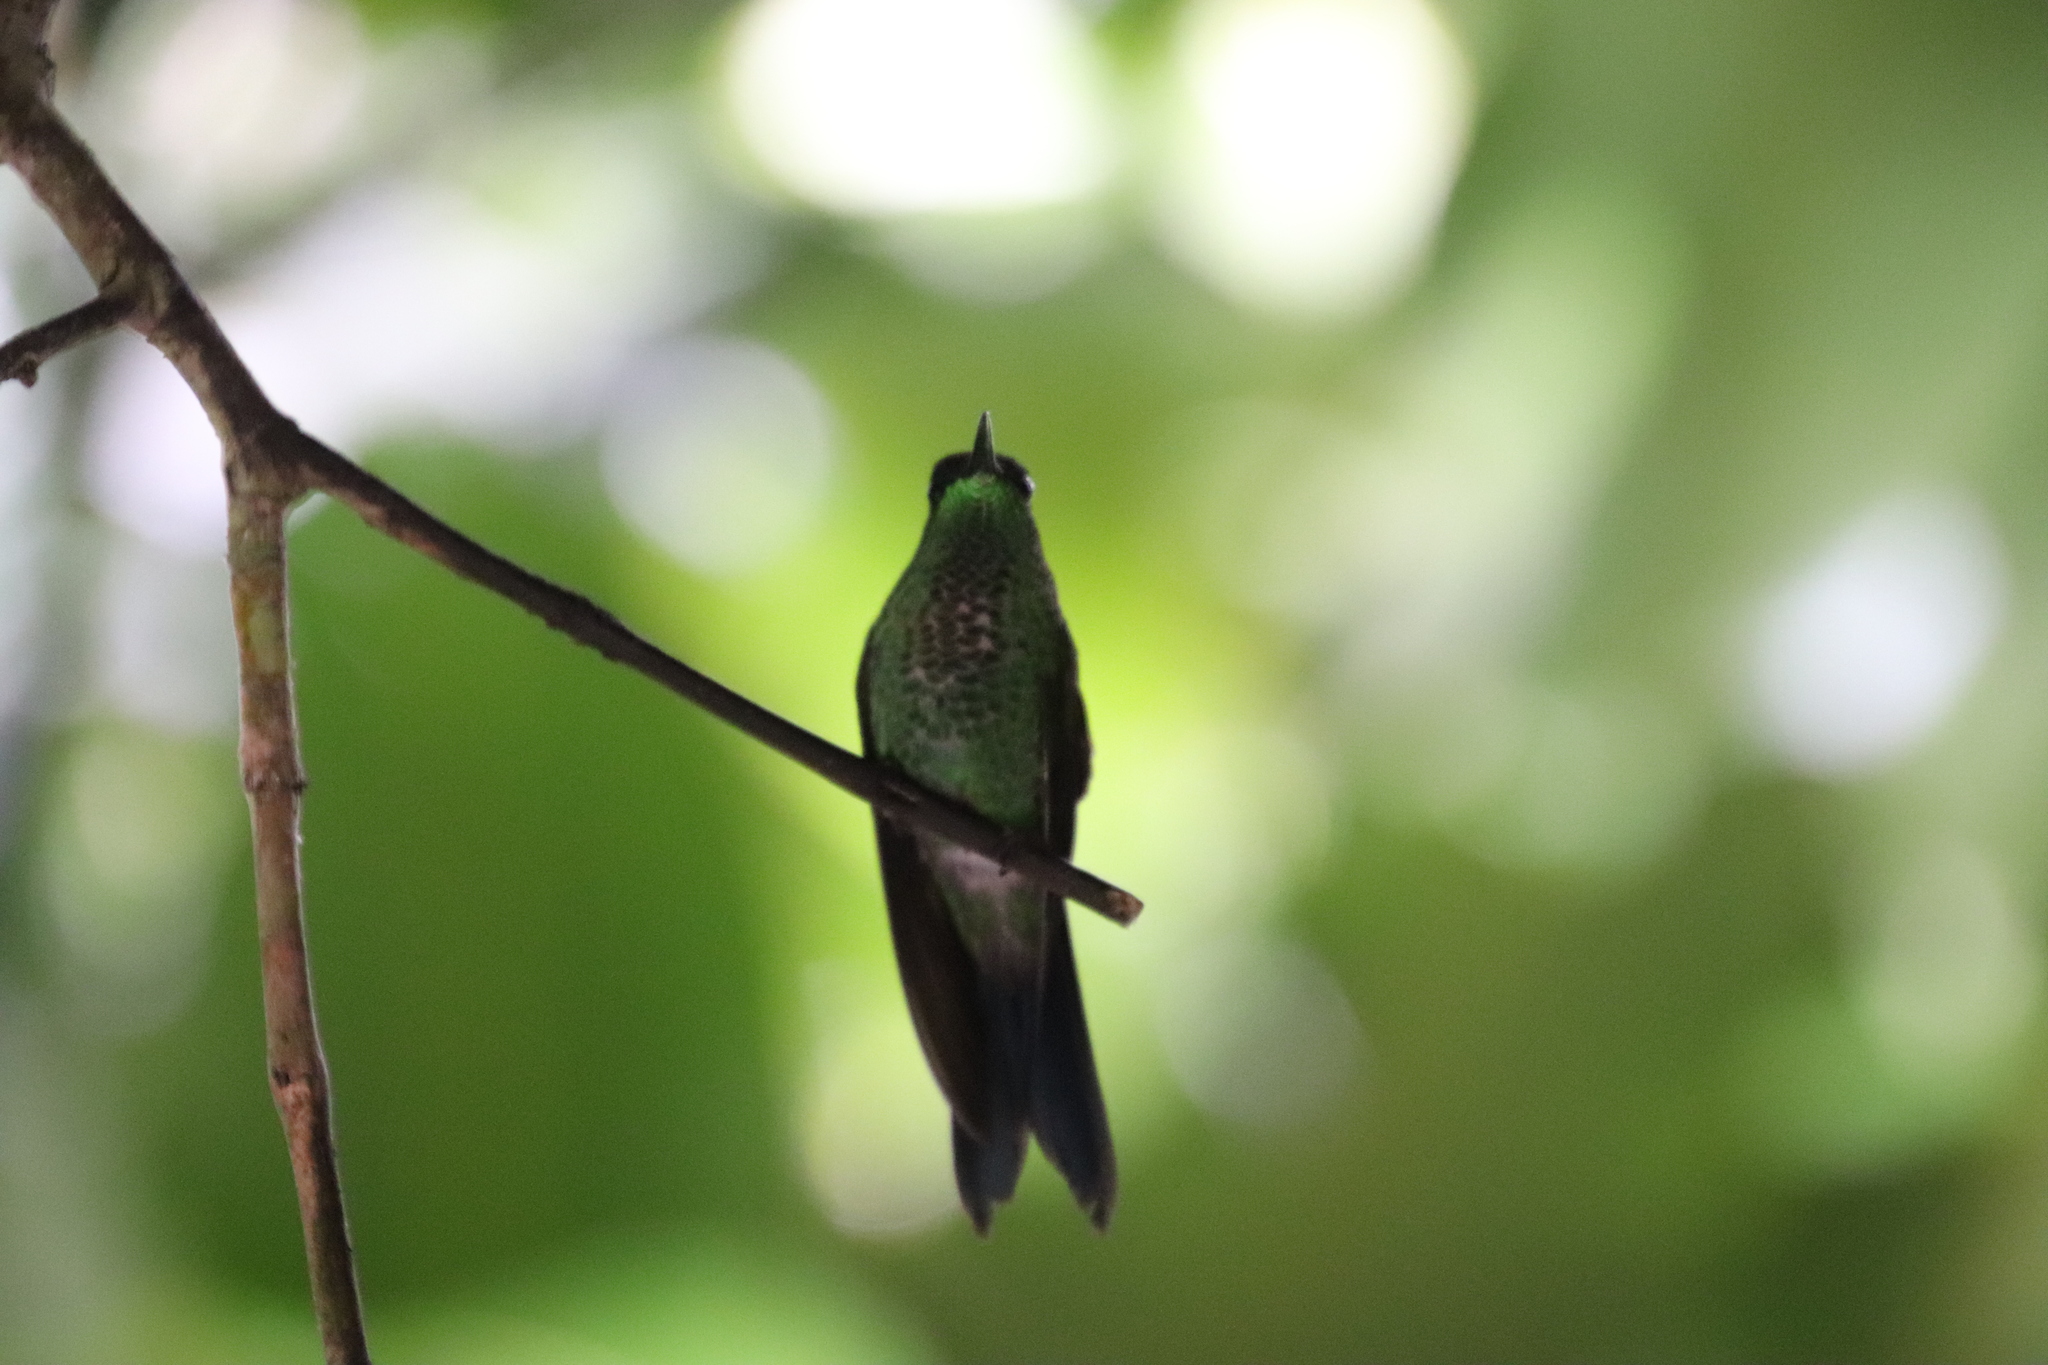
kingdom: Animalia
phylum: Chordata
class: Aves
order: Apodiformes
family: Trochilidae
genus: Thalurania
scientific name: Thalurania glaucopis
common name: Violet-capped woodnymph
